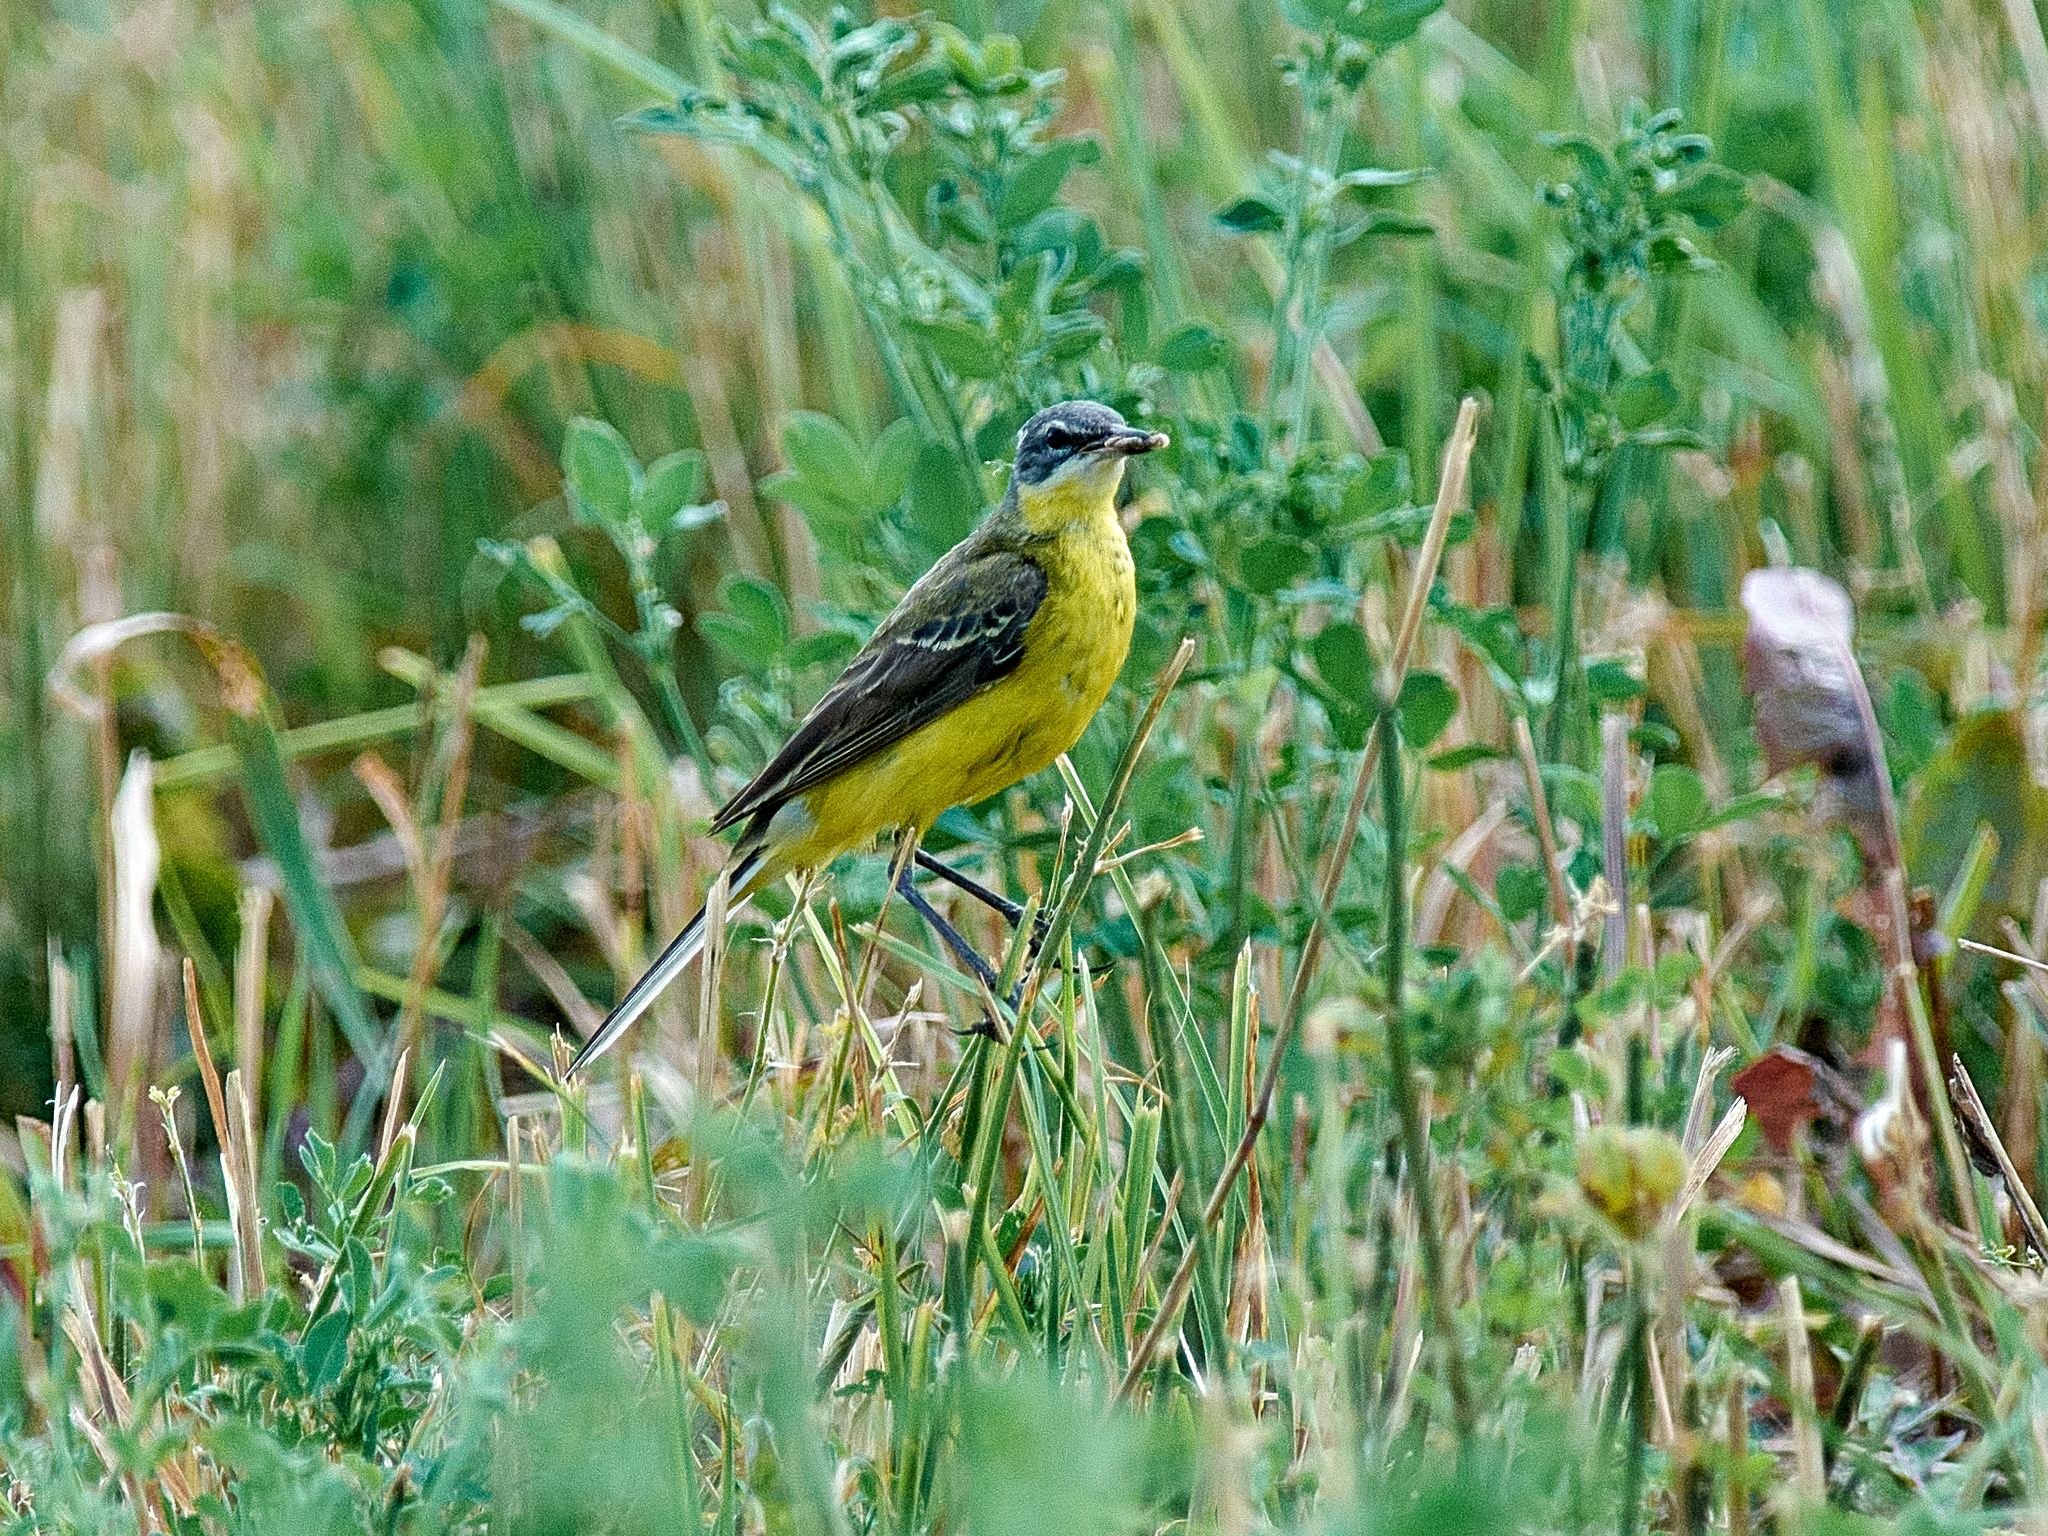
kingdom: Animalia
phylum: Chordata
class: Aves
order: Passeriformes
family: Motacillidae
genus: Motacilla
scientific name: Motacilla flava
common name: Western yellow wagtail
